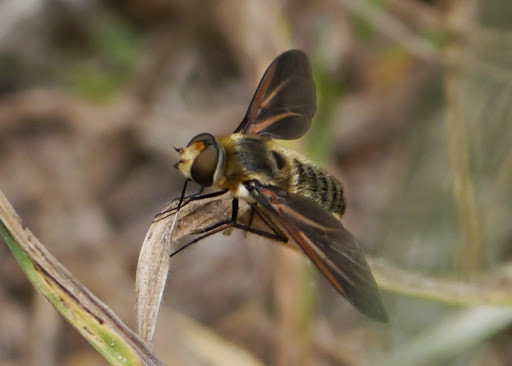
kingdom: Animalia
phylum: Arthropoda
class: Insecta
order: Diptera
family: Bombyliidae
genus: Poecilanthrax
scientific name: Poecilanthrax lucifer
